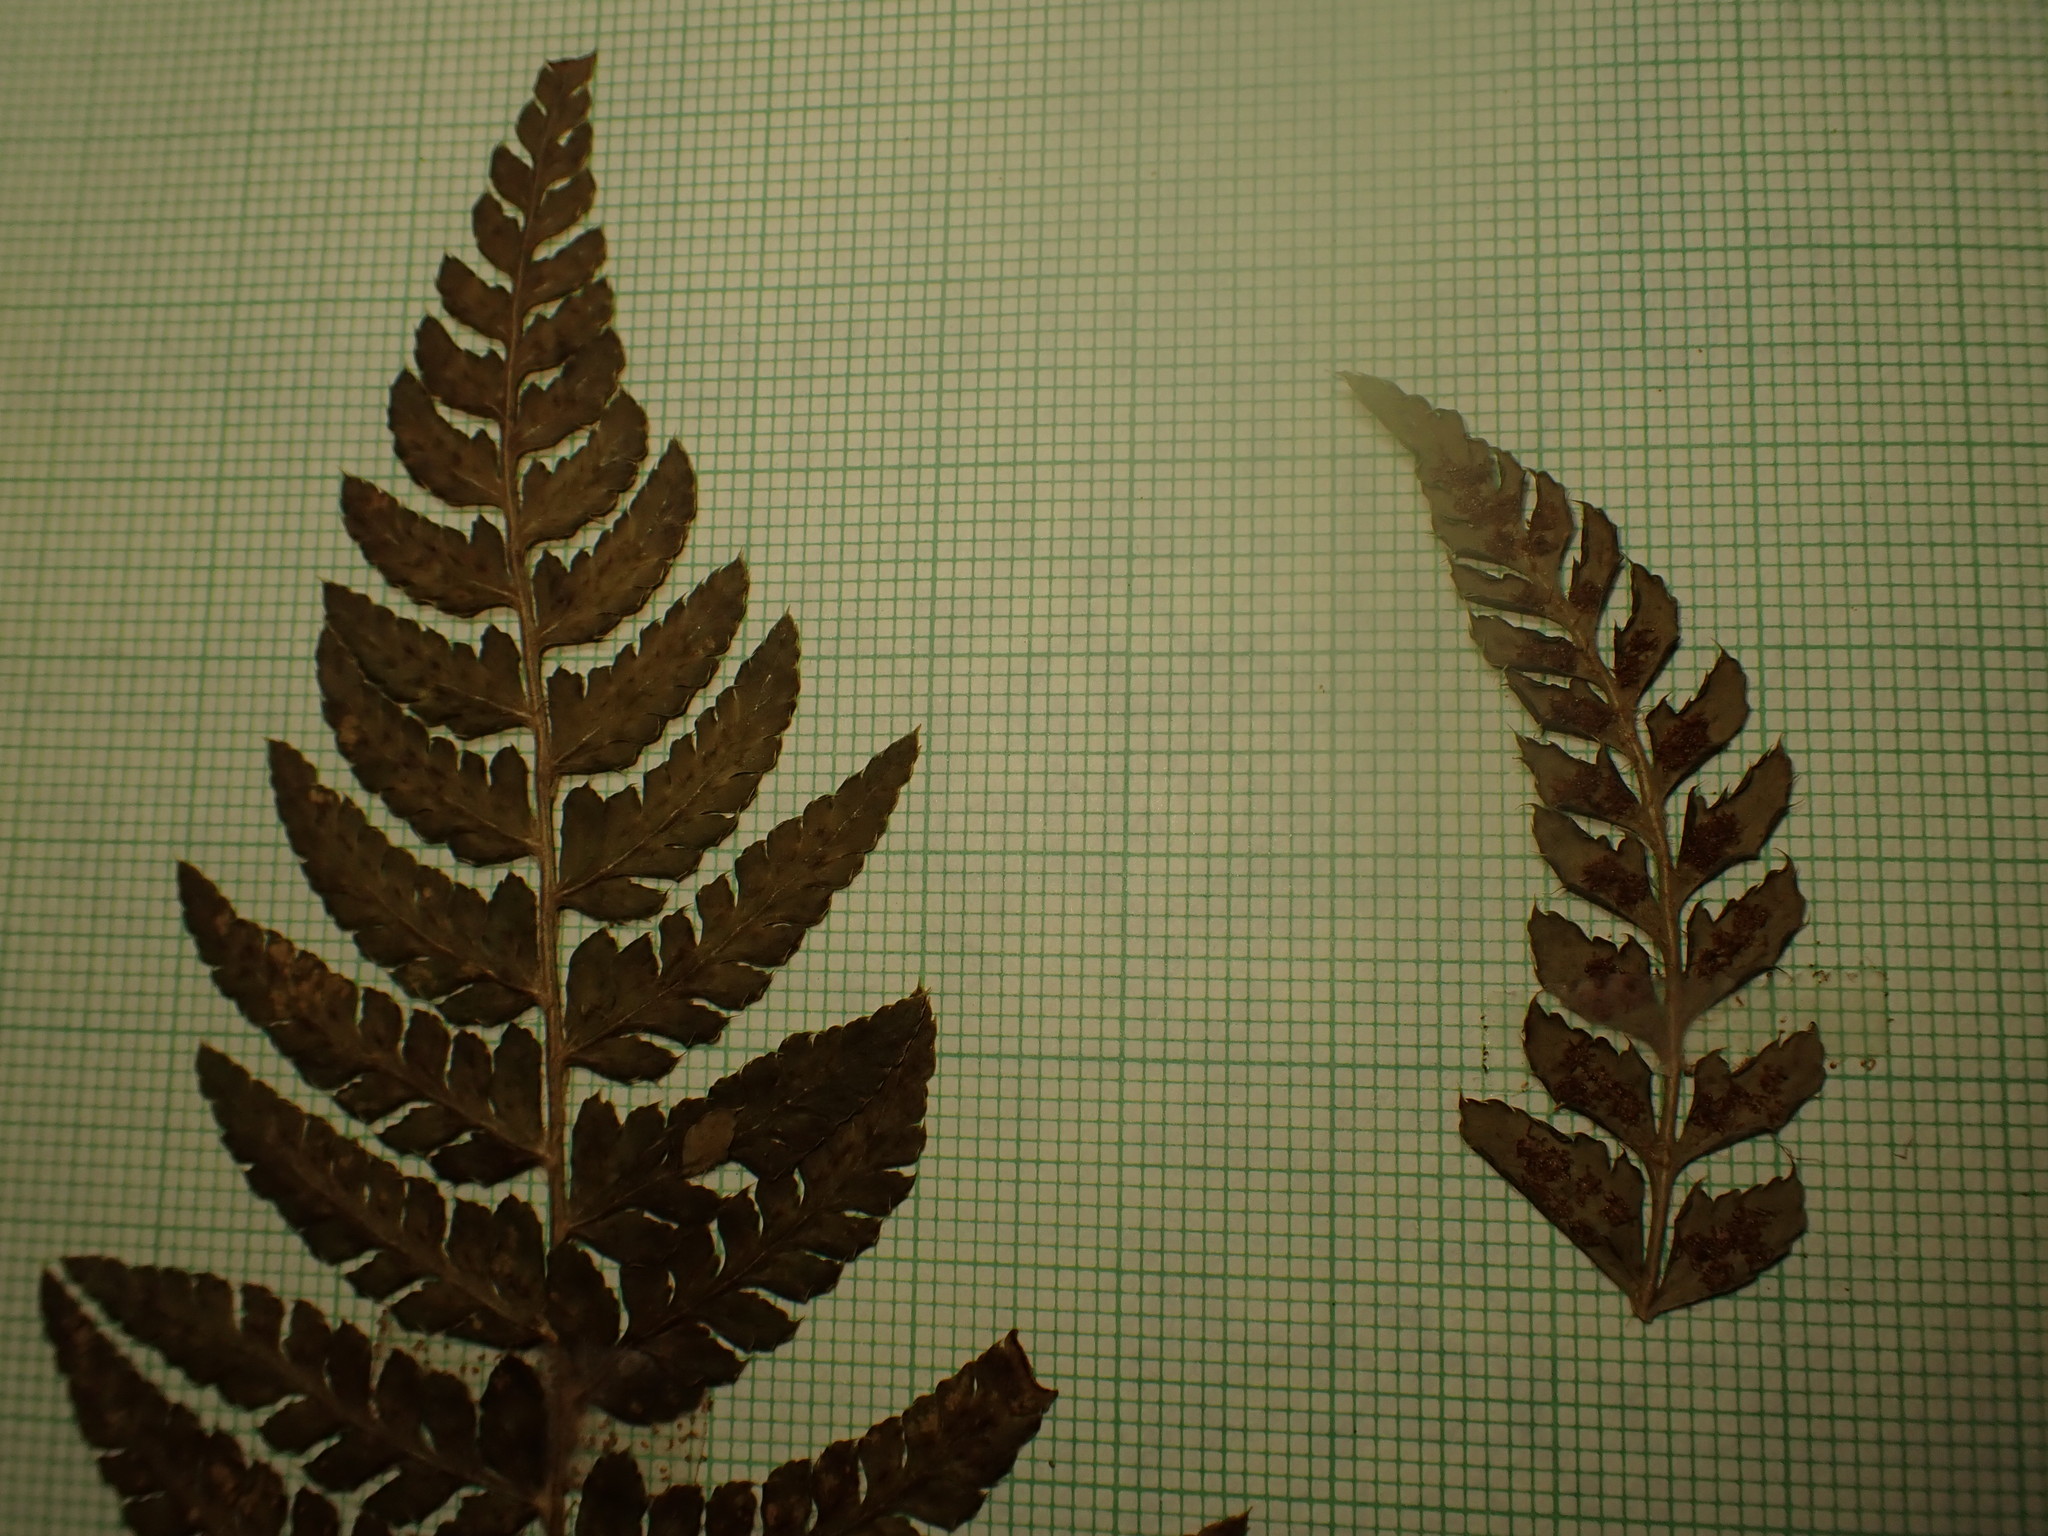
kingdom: Plantae
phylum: Tracheophyta
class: Polypodiopsida
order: Polypodiales
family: Dryopteridaceae
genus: Polystichum
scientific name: Polystichum braunii
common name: Braun's holly fern
